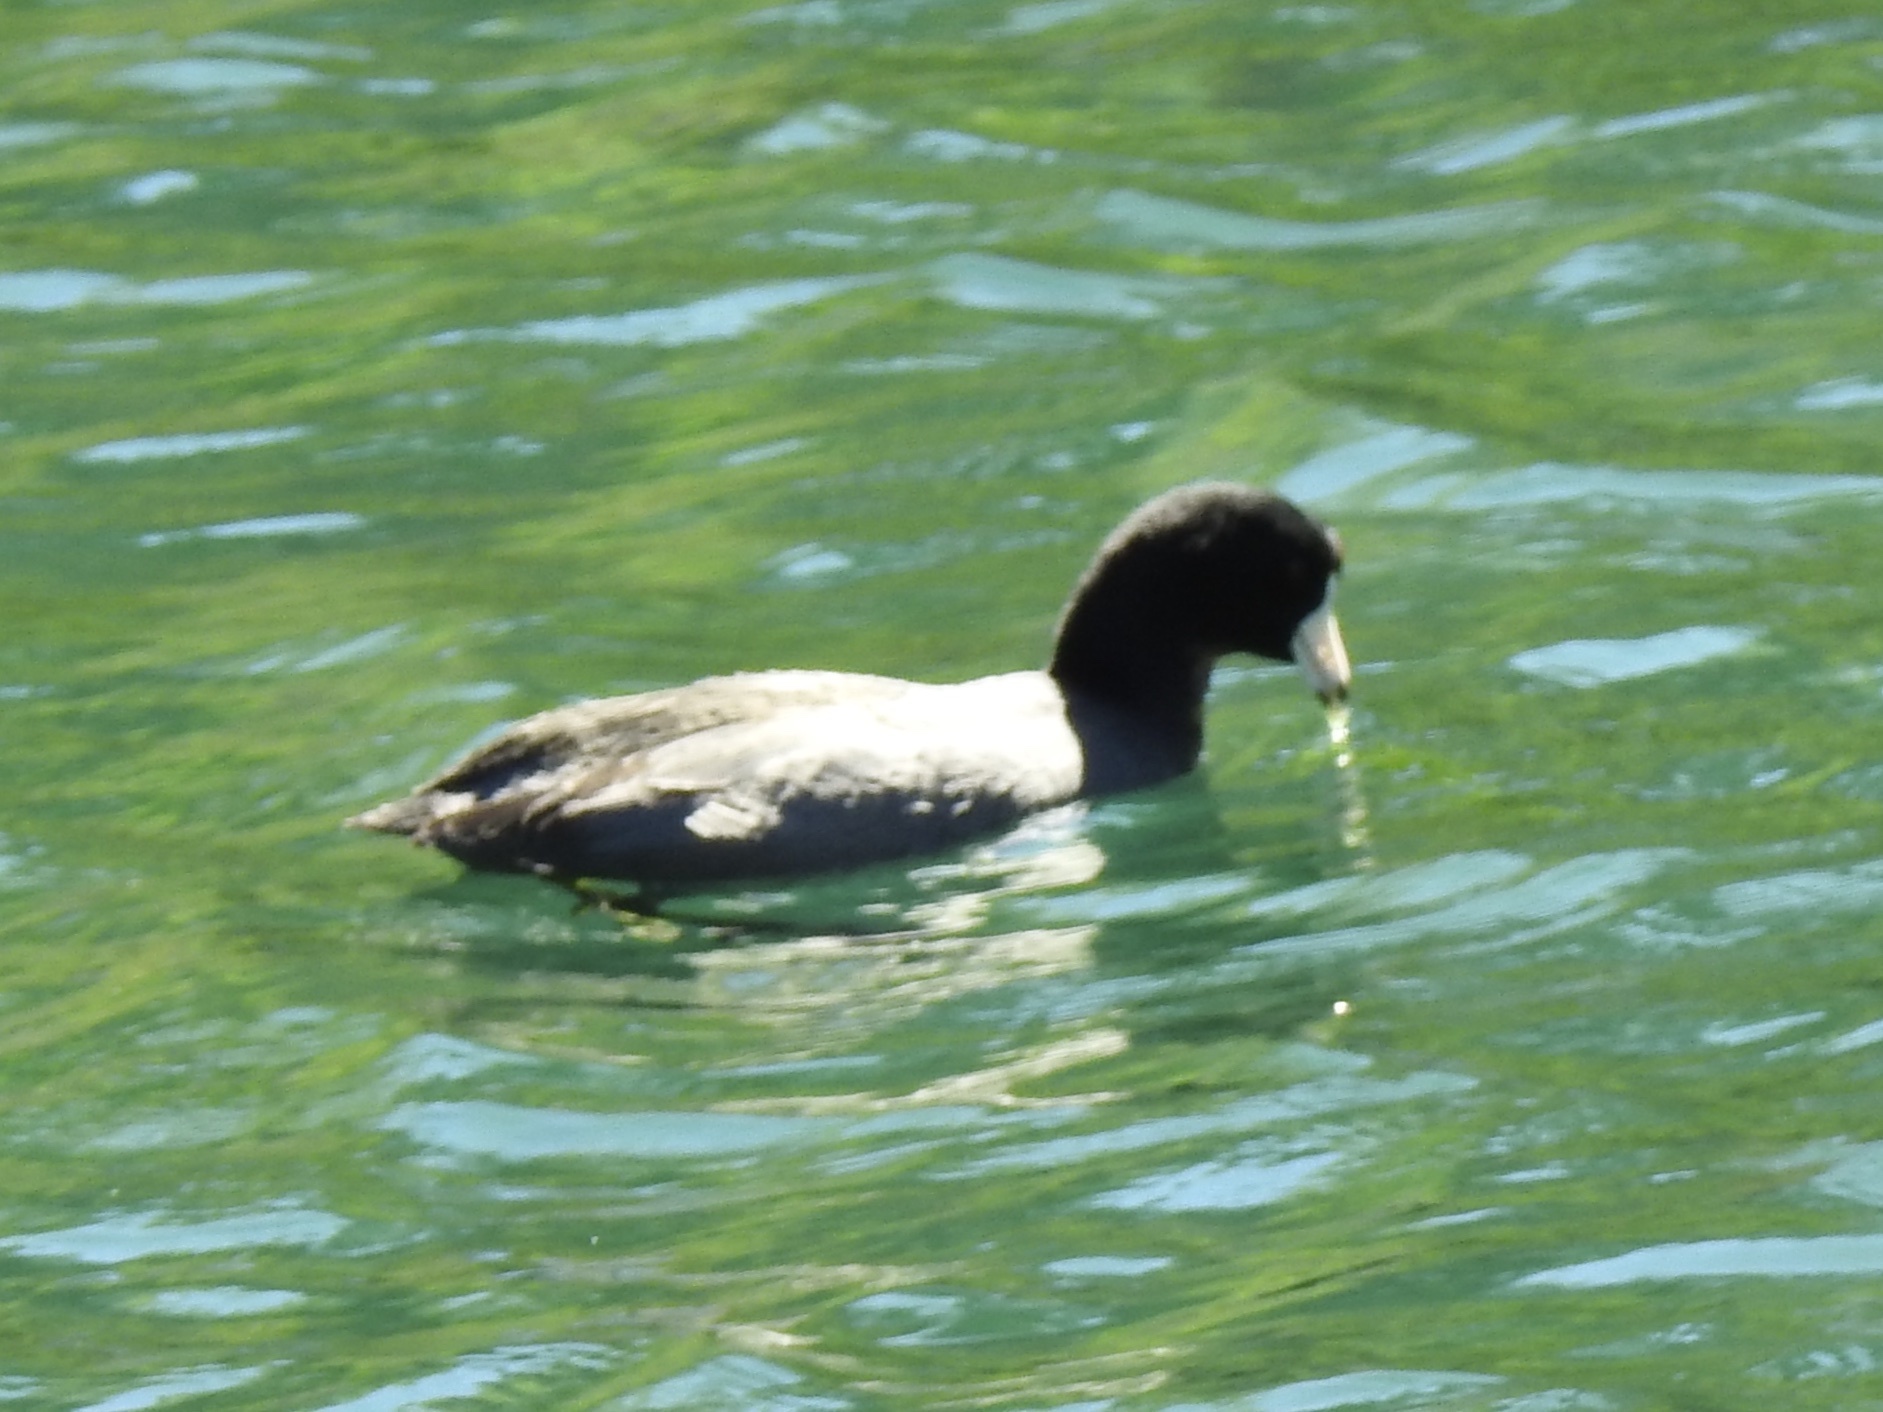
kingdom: Animalia
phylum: Chordata
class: Aves
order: Gruiformes
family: Rallidae
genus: Fulica
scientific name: Fulica americana
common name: American coot
